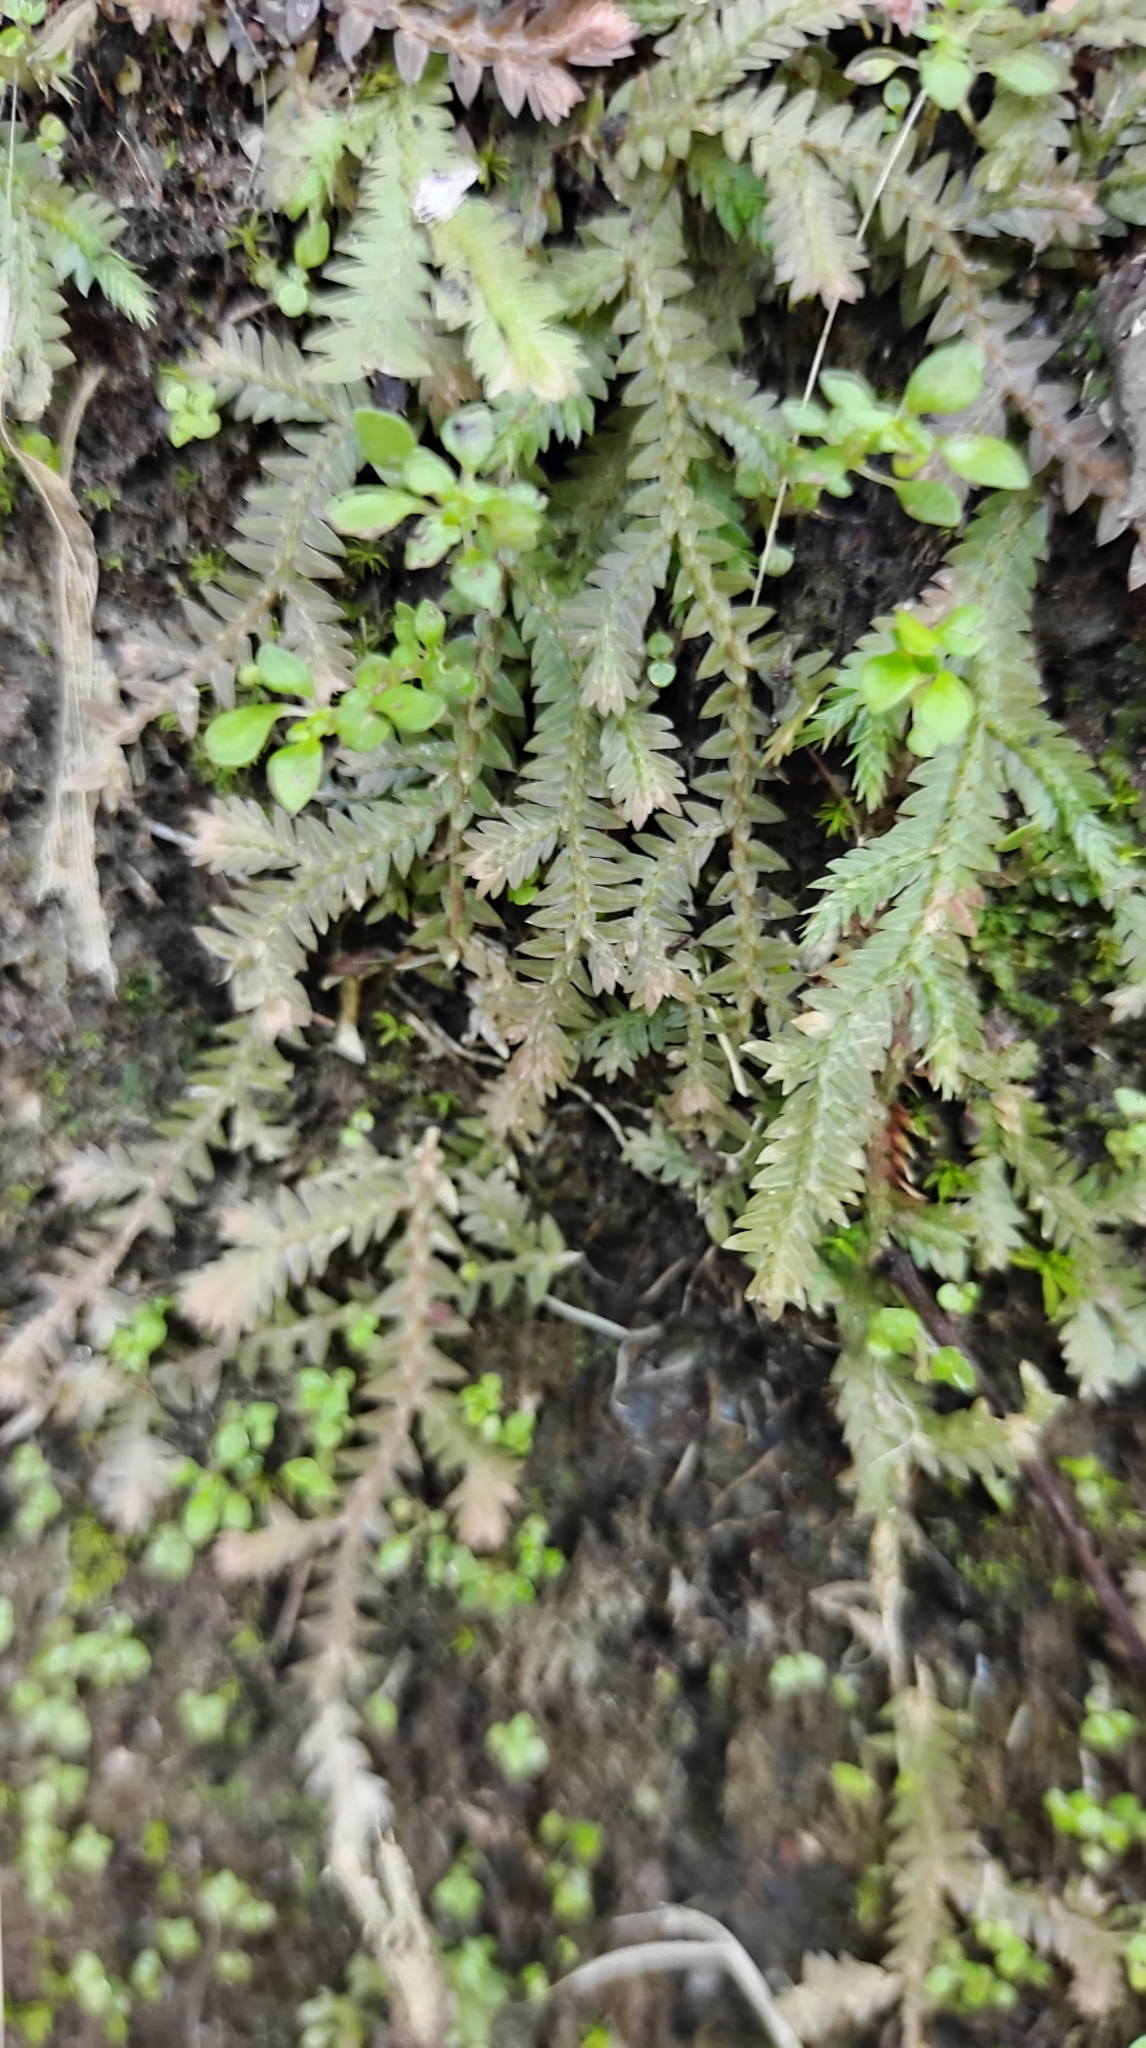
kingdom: Plantae
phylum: Tracheophyta
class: Lycopodiopsida
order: Selaginellales
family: Selaginellaceae
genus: Selaginella
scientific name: Selaginella repanda
